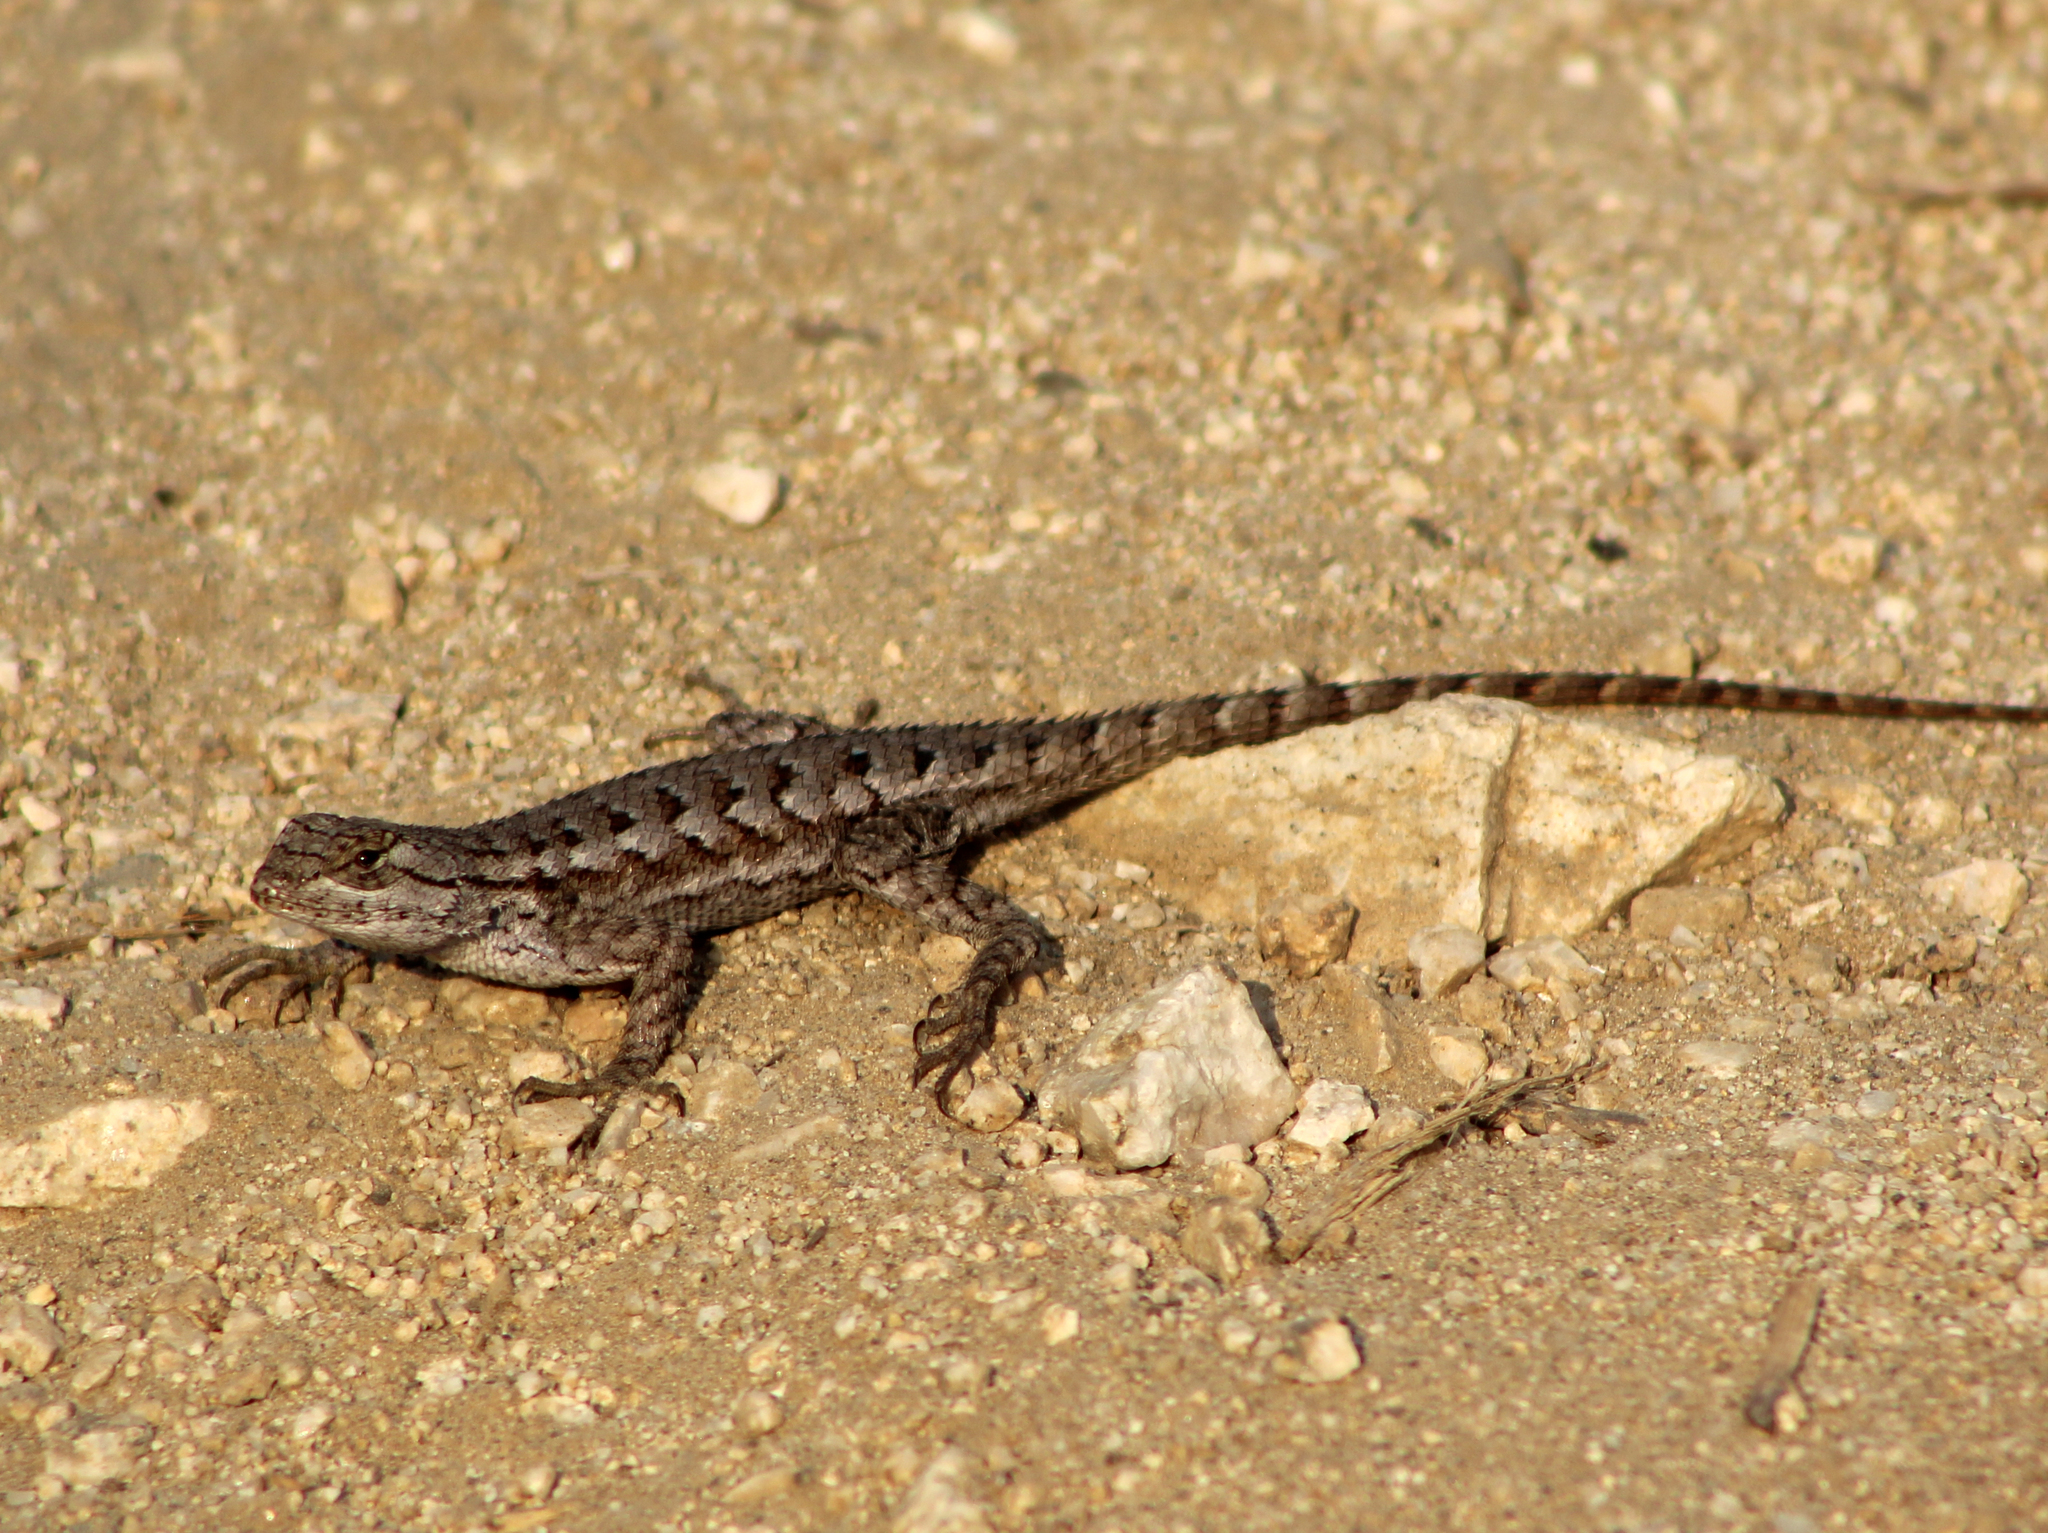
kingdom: Animalia
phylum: Chordata
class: Squamata
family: Phrynosomatidae
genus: Sceloporus
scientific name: Sceloporus occidentalis
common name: Western fence lizard
